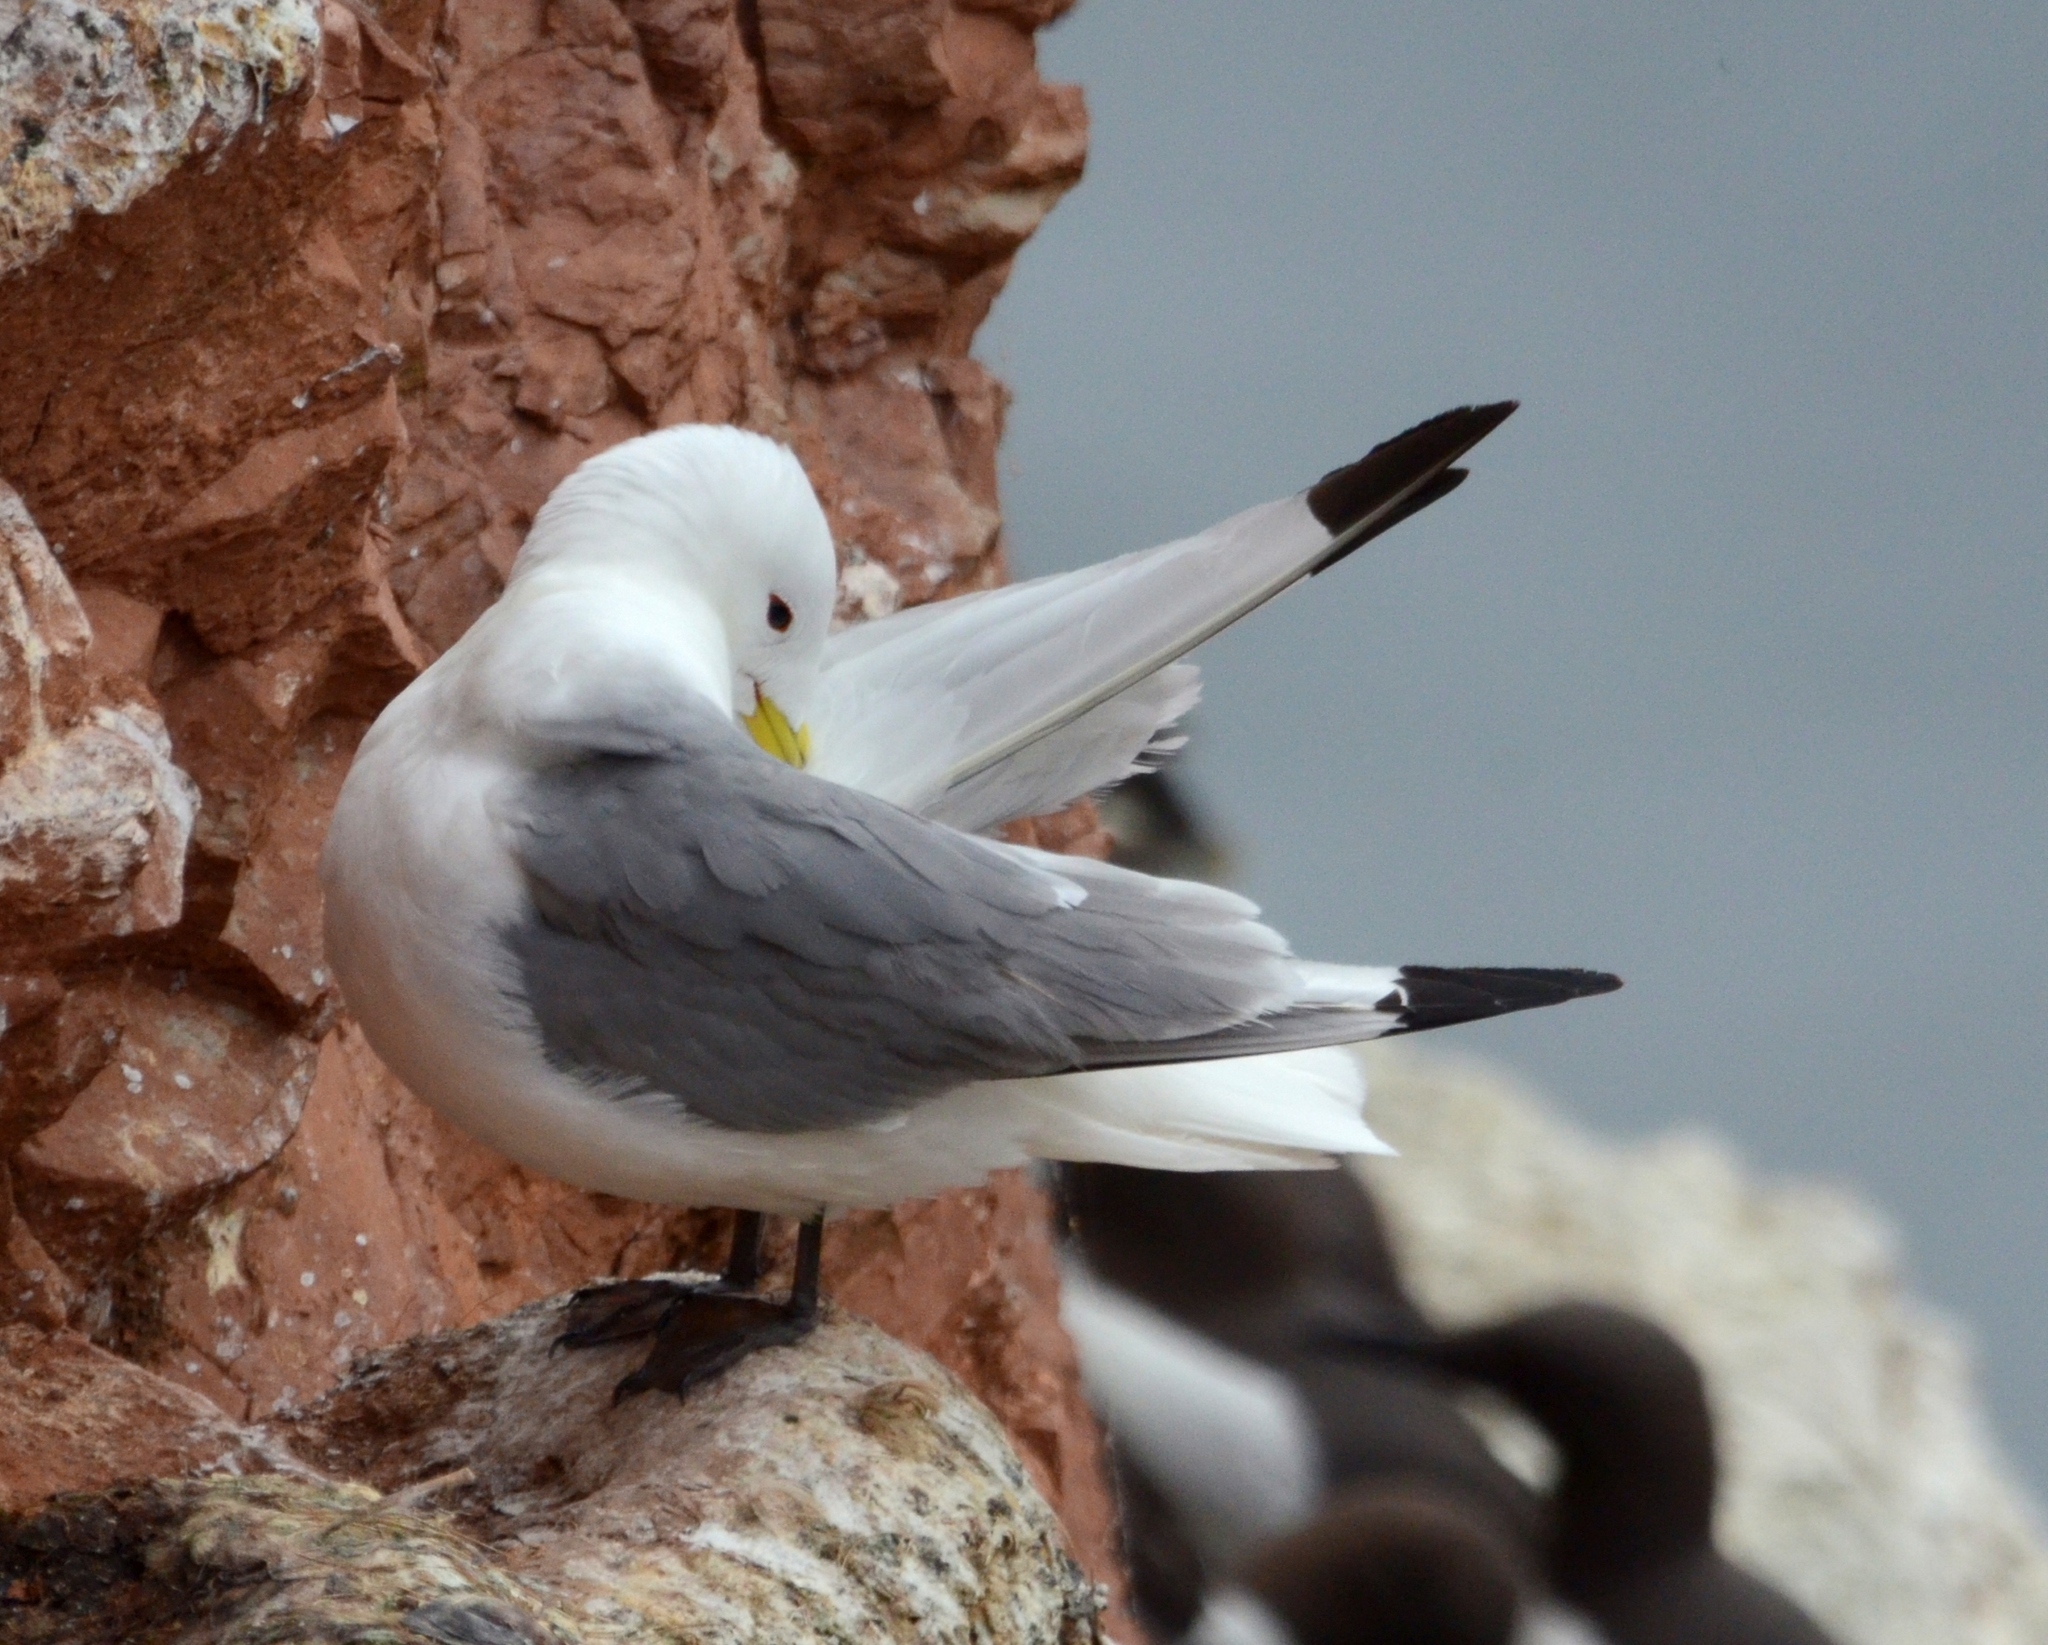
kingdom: Animalia
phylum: Chordata
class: Aves
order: Charadriiformes
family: Laridae
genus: Rissa
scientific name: Rissa tridactyla
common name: Black-legged kittiwake
